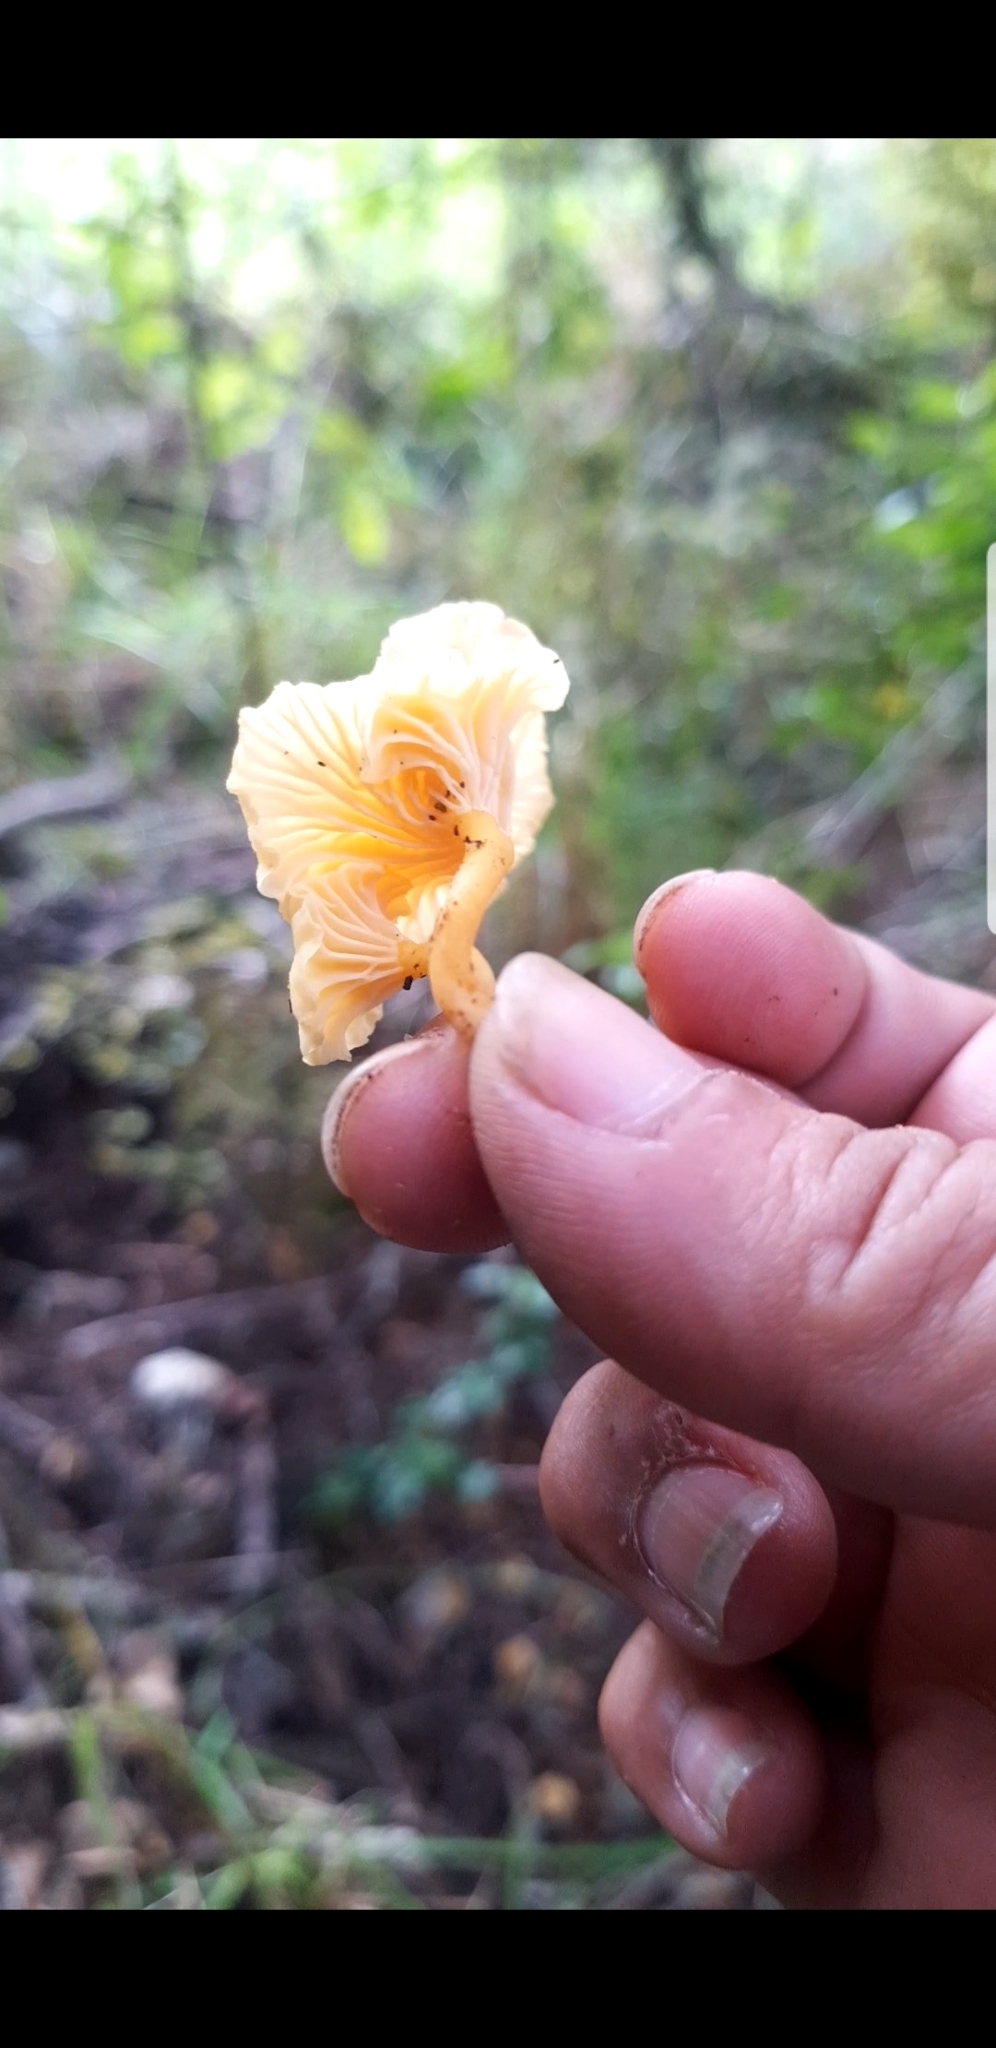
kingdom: Fungi
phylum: Basidiomycota
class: Agaricomycetes
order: Cantharellales
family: Hydnaceae
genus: Cantharellus
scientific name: Cantharellus wellingtonensis
